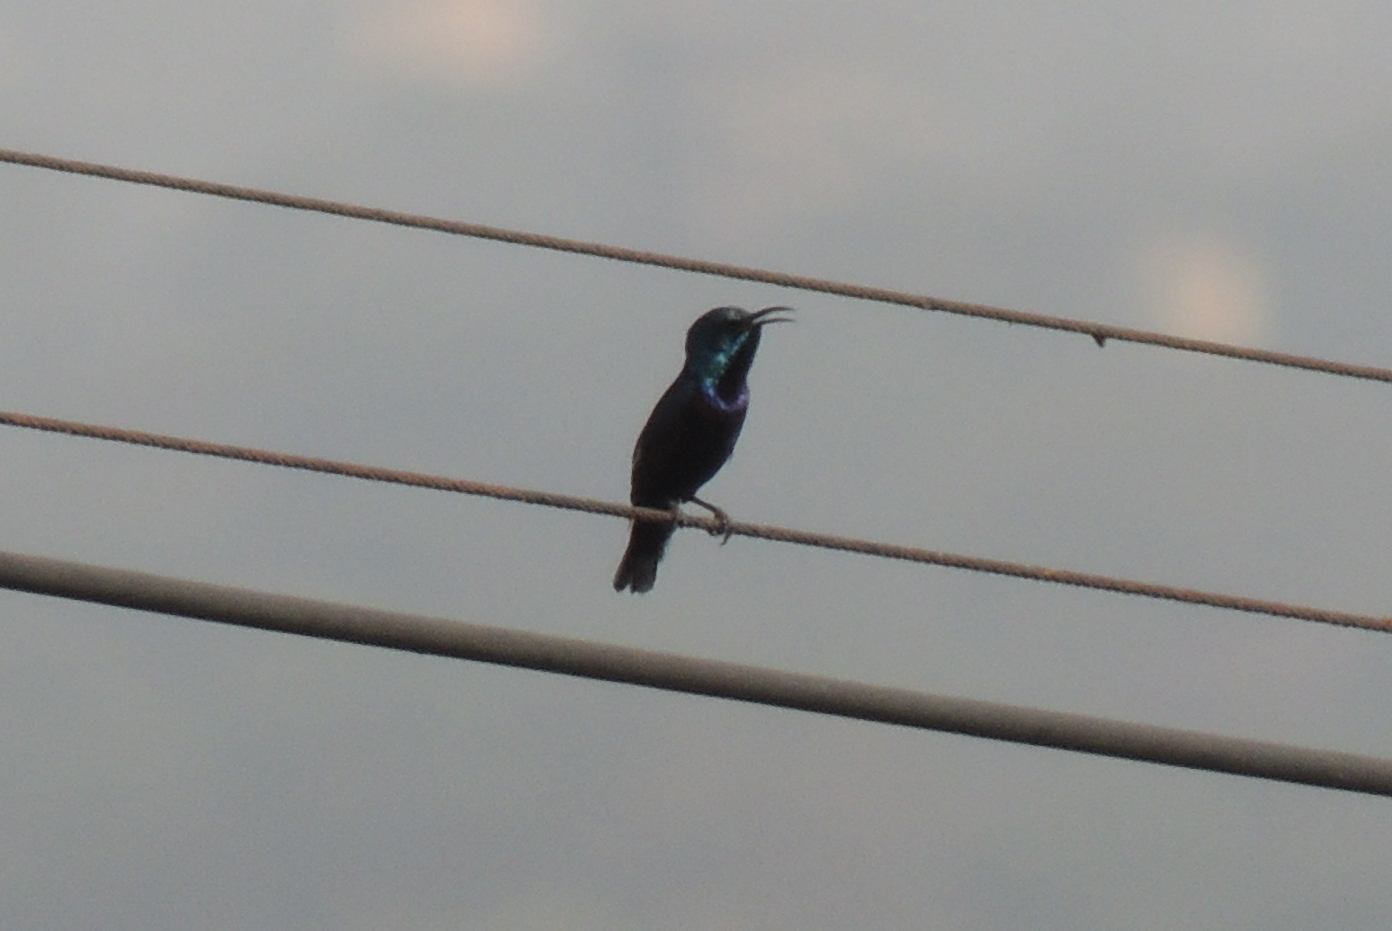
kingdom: Animalia
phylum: Chordata
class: Aves
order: Passeriformes
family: Nectariniidae
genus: Cinnyris
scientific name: Cinnyris asiaticus
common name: Purple sunbird
